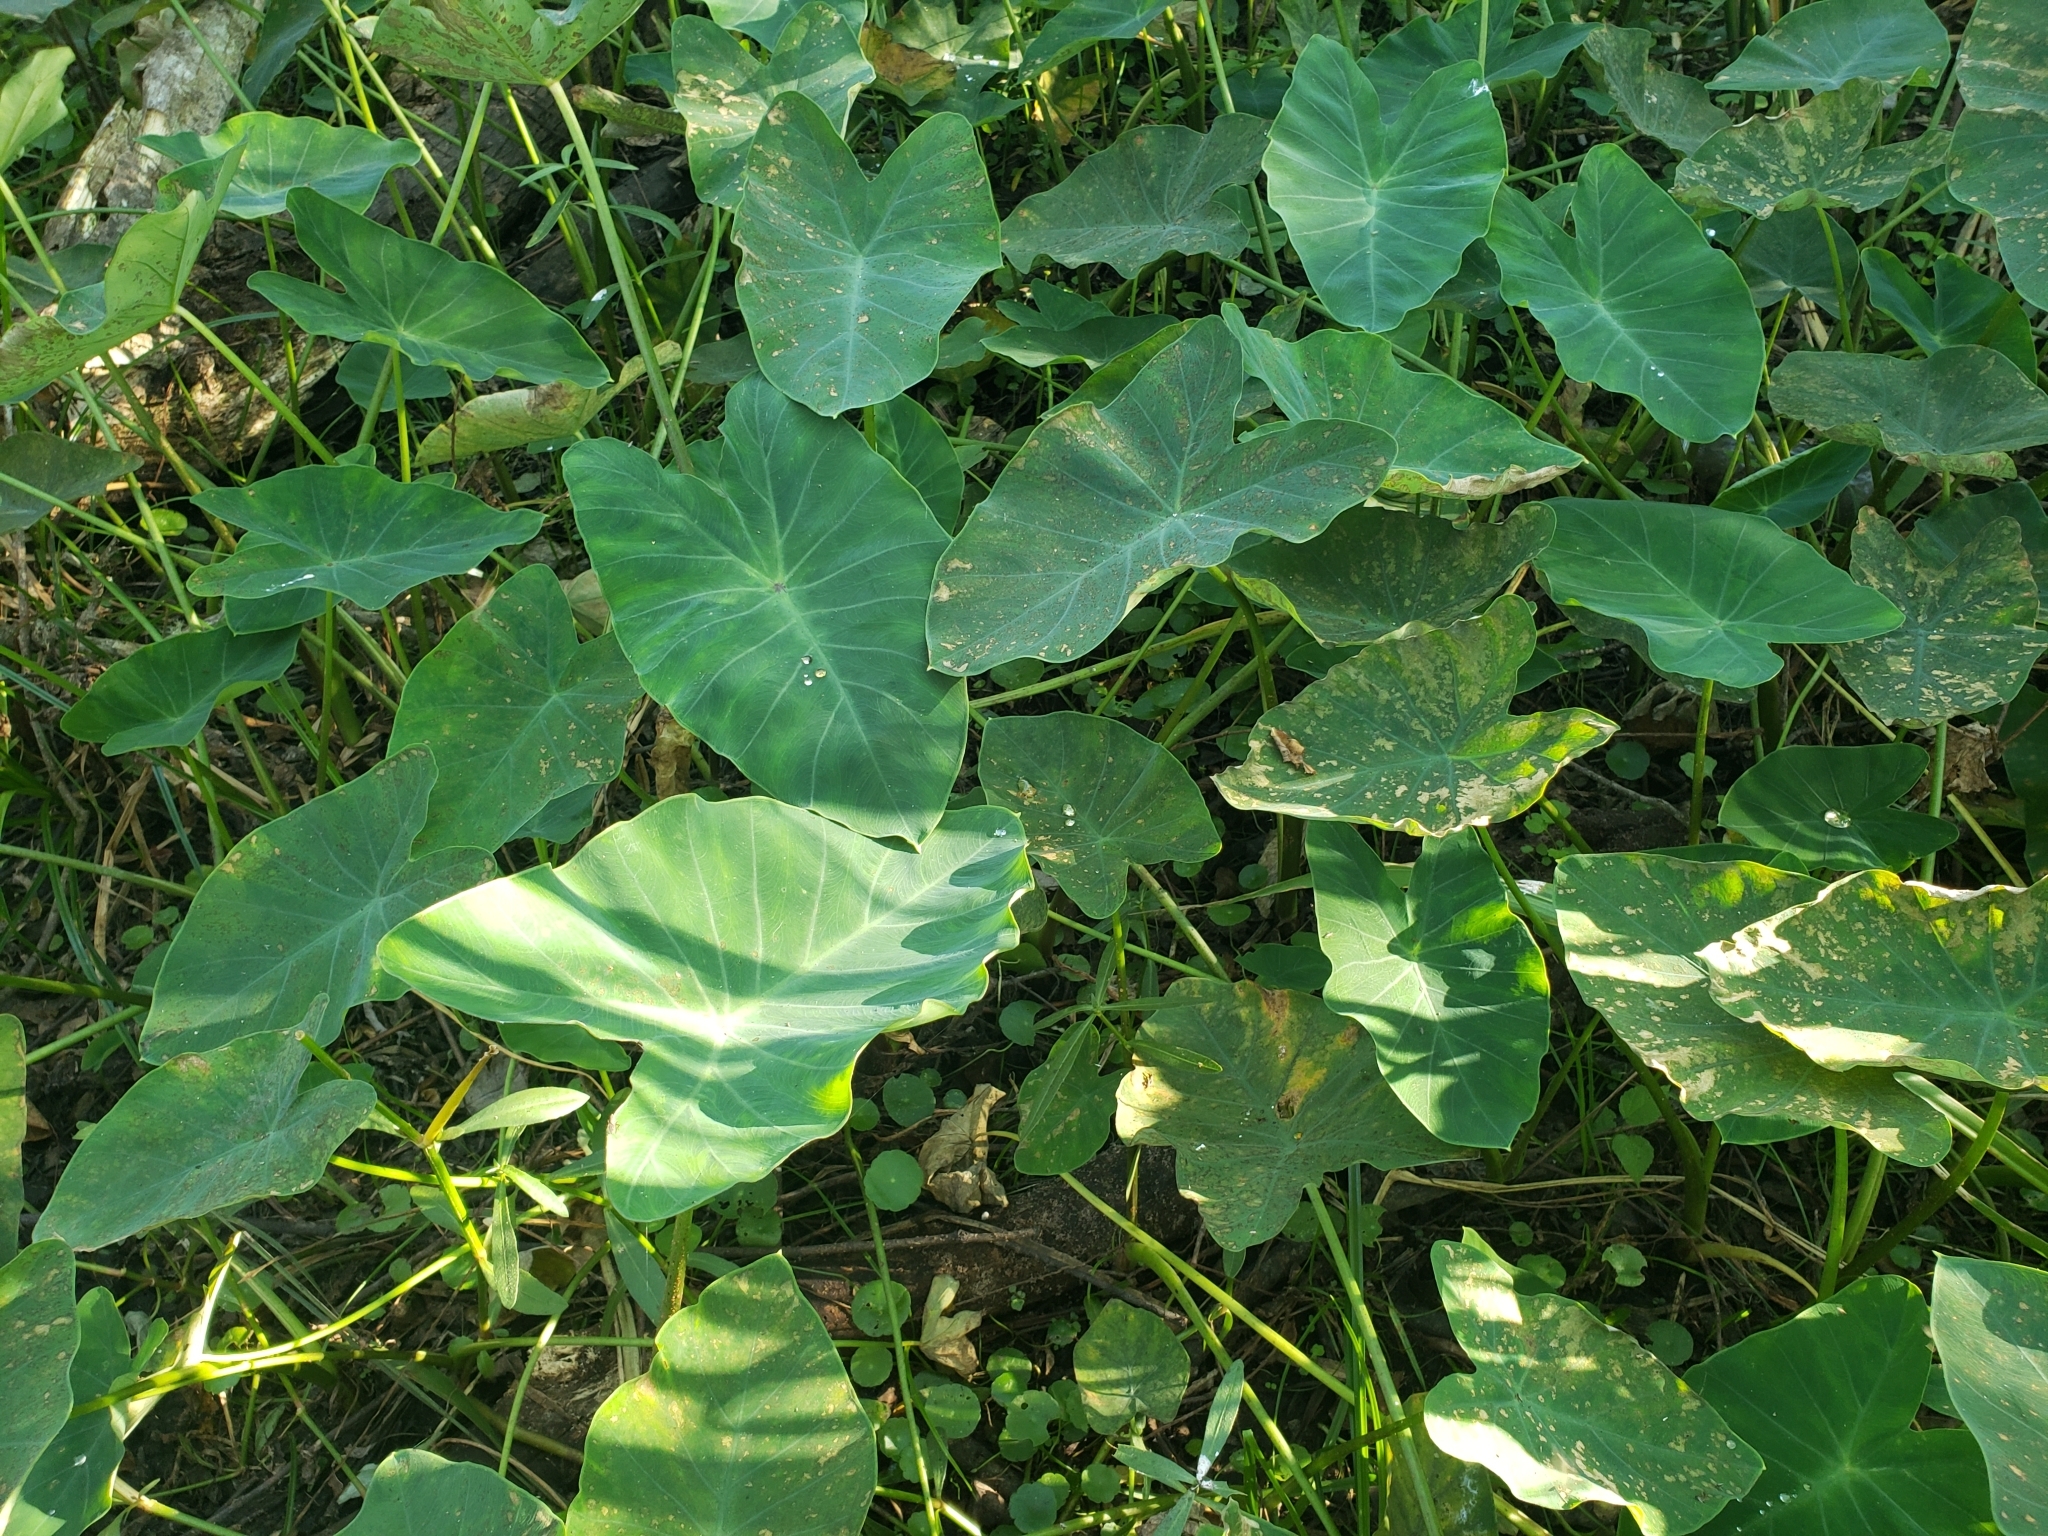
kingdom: Plantae
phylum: Tracheophyta
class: Liliopsida
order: Alismatales
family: Araceae
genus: Colocasia
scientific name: Colocasia esculenta
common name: Taro
